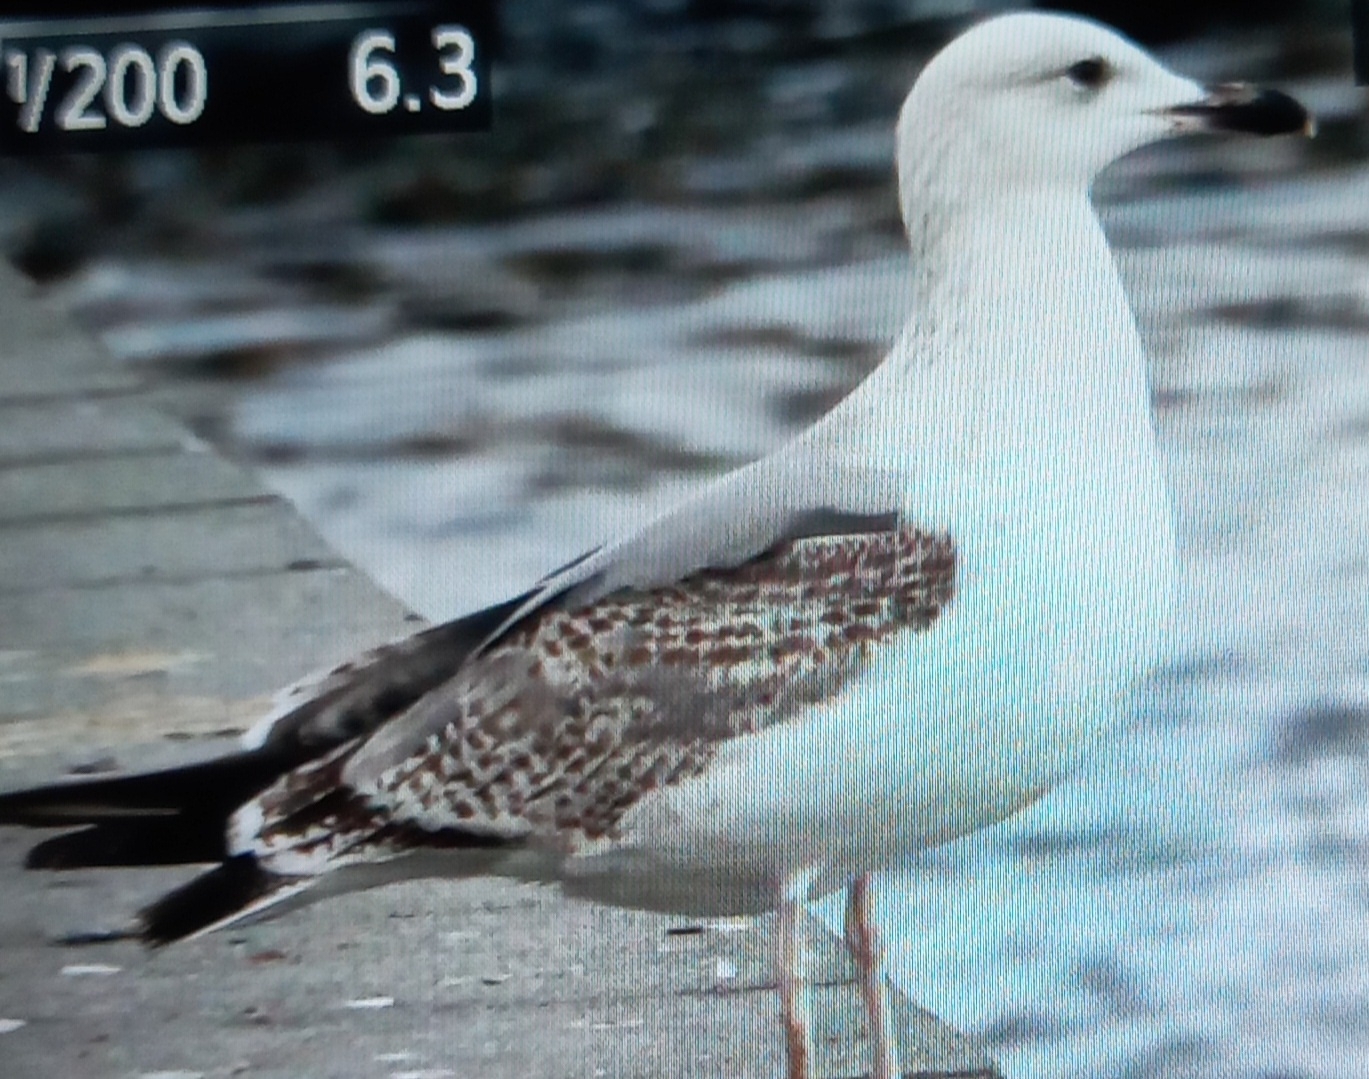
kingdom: Animalia
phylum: Chordata
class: Aves
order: Charadriiformes
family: Laridae
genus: Larus
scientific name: Larus michahellis
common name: Yellow-legged gull
